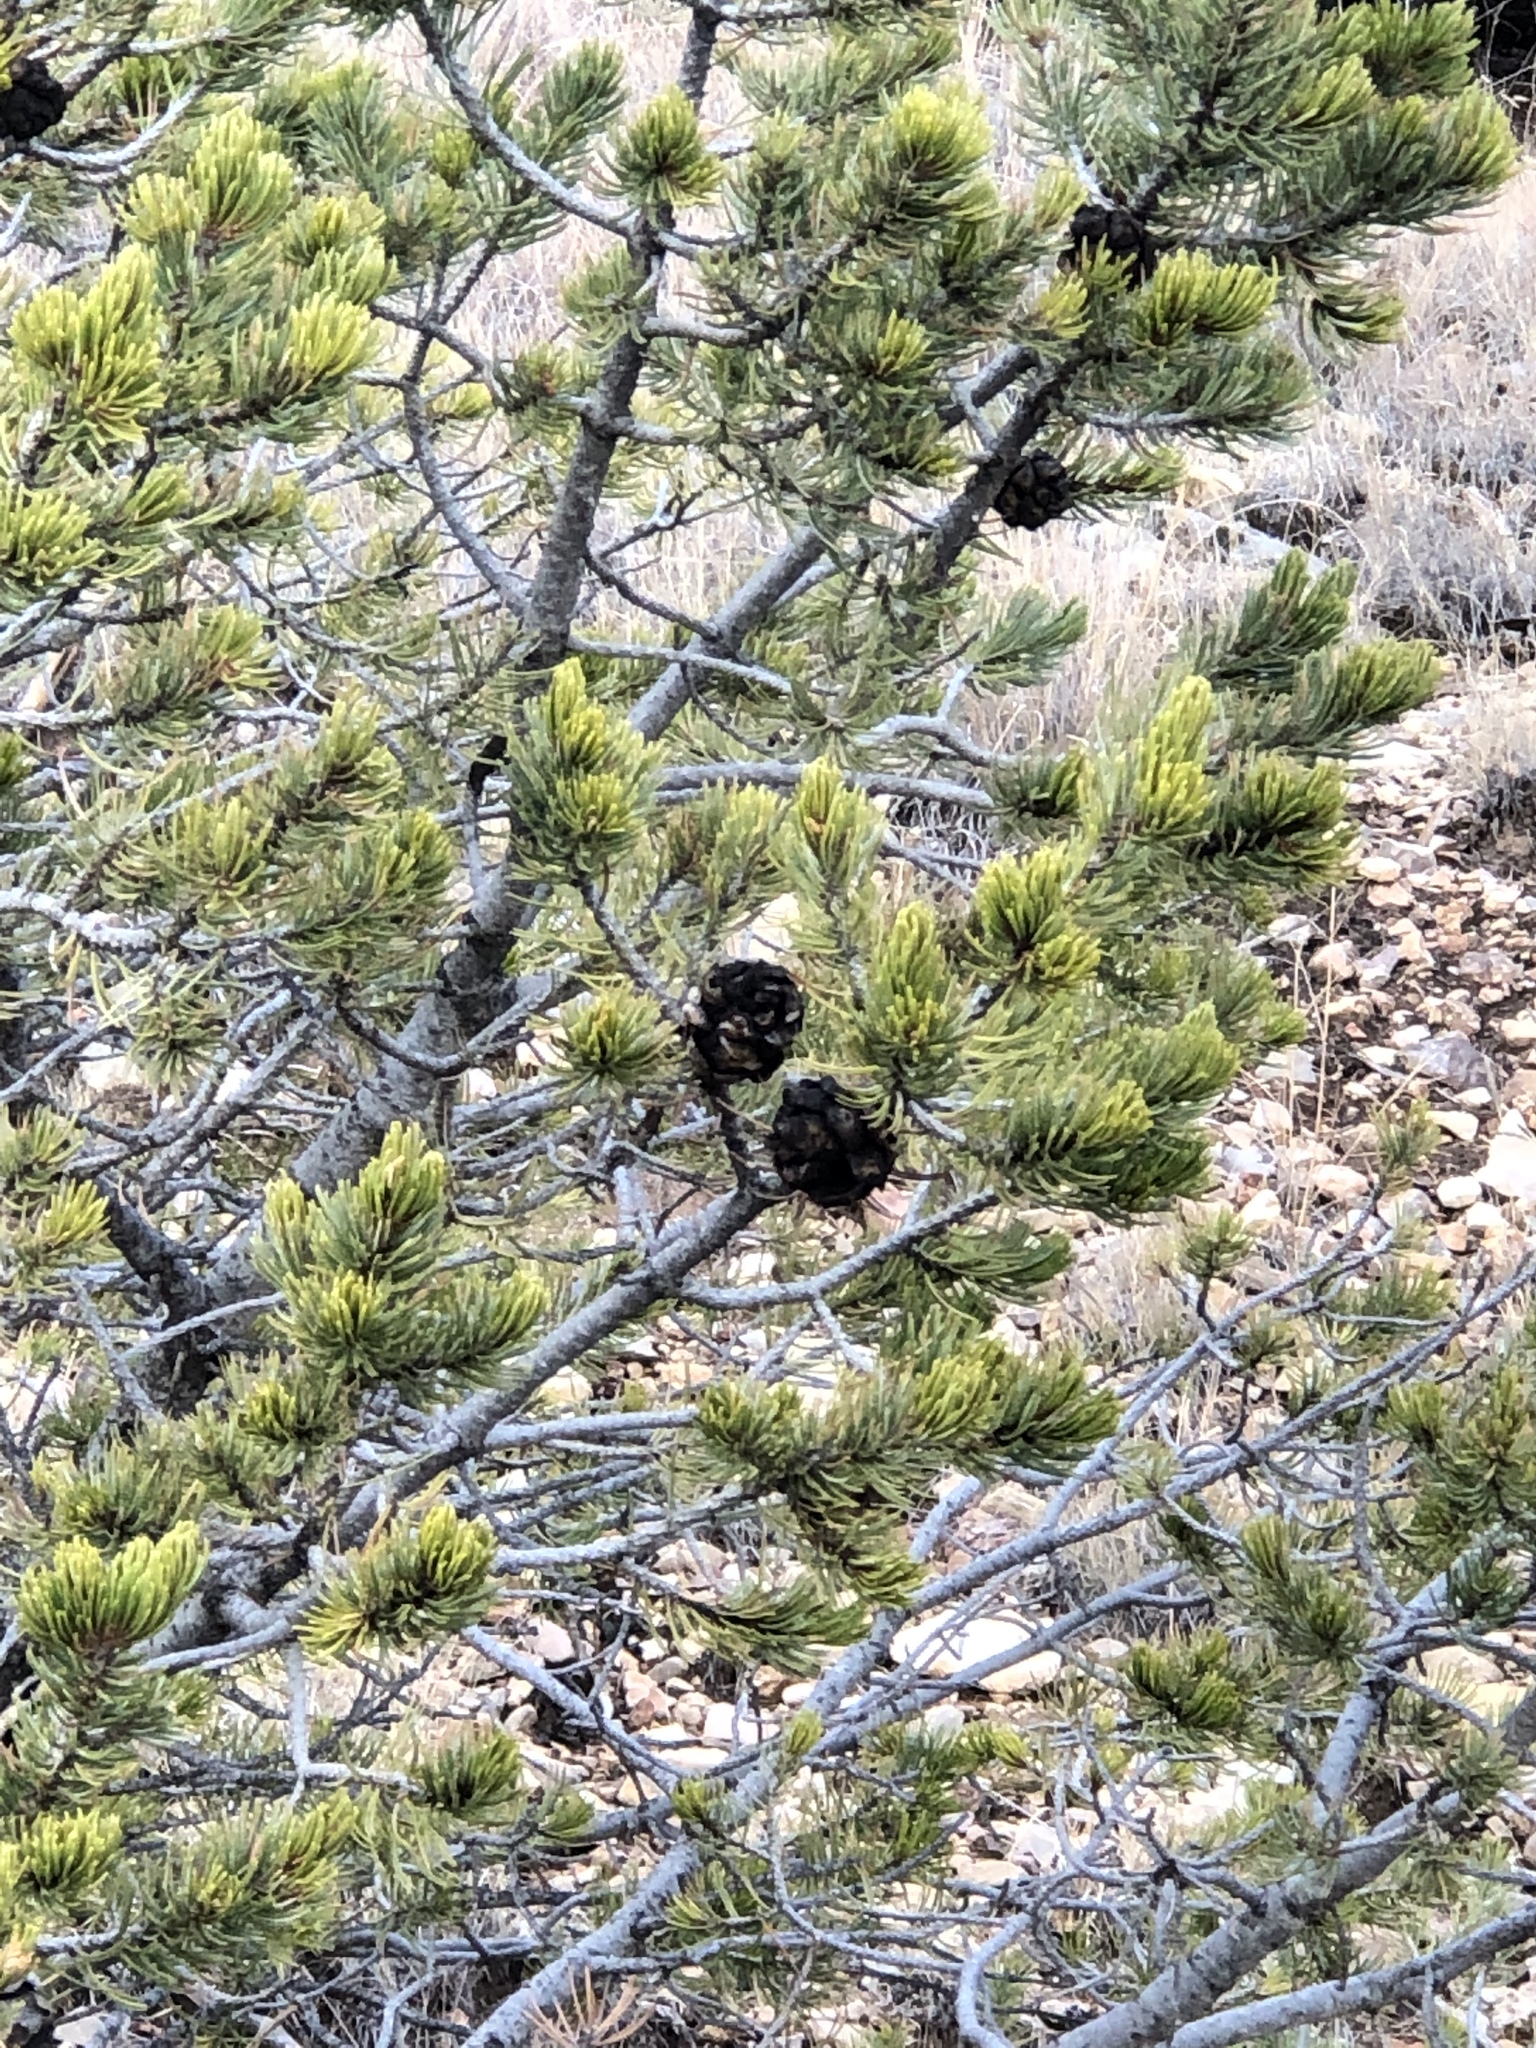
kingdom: Plantae
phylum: Tracheophyta
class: Pinopsida
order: Pinales
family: Pinaceae
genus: Pinus
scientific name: Pinus edulis
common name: Colorado pinyon
